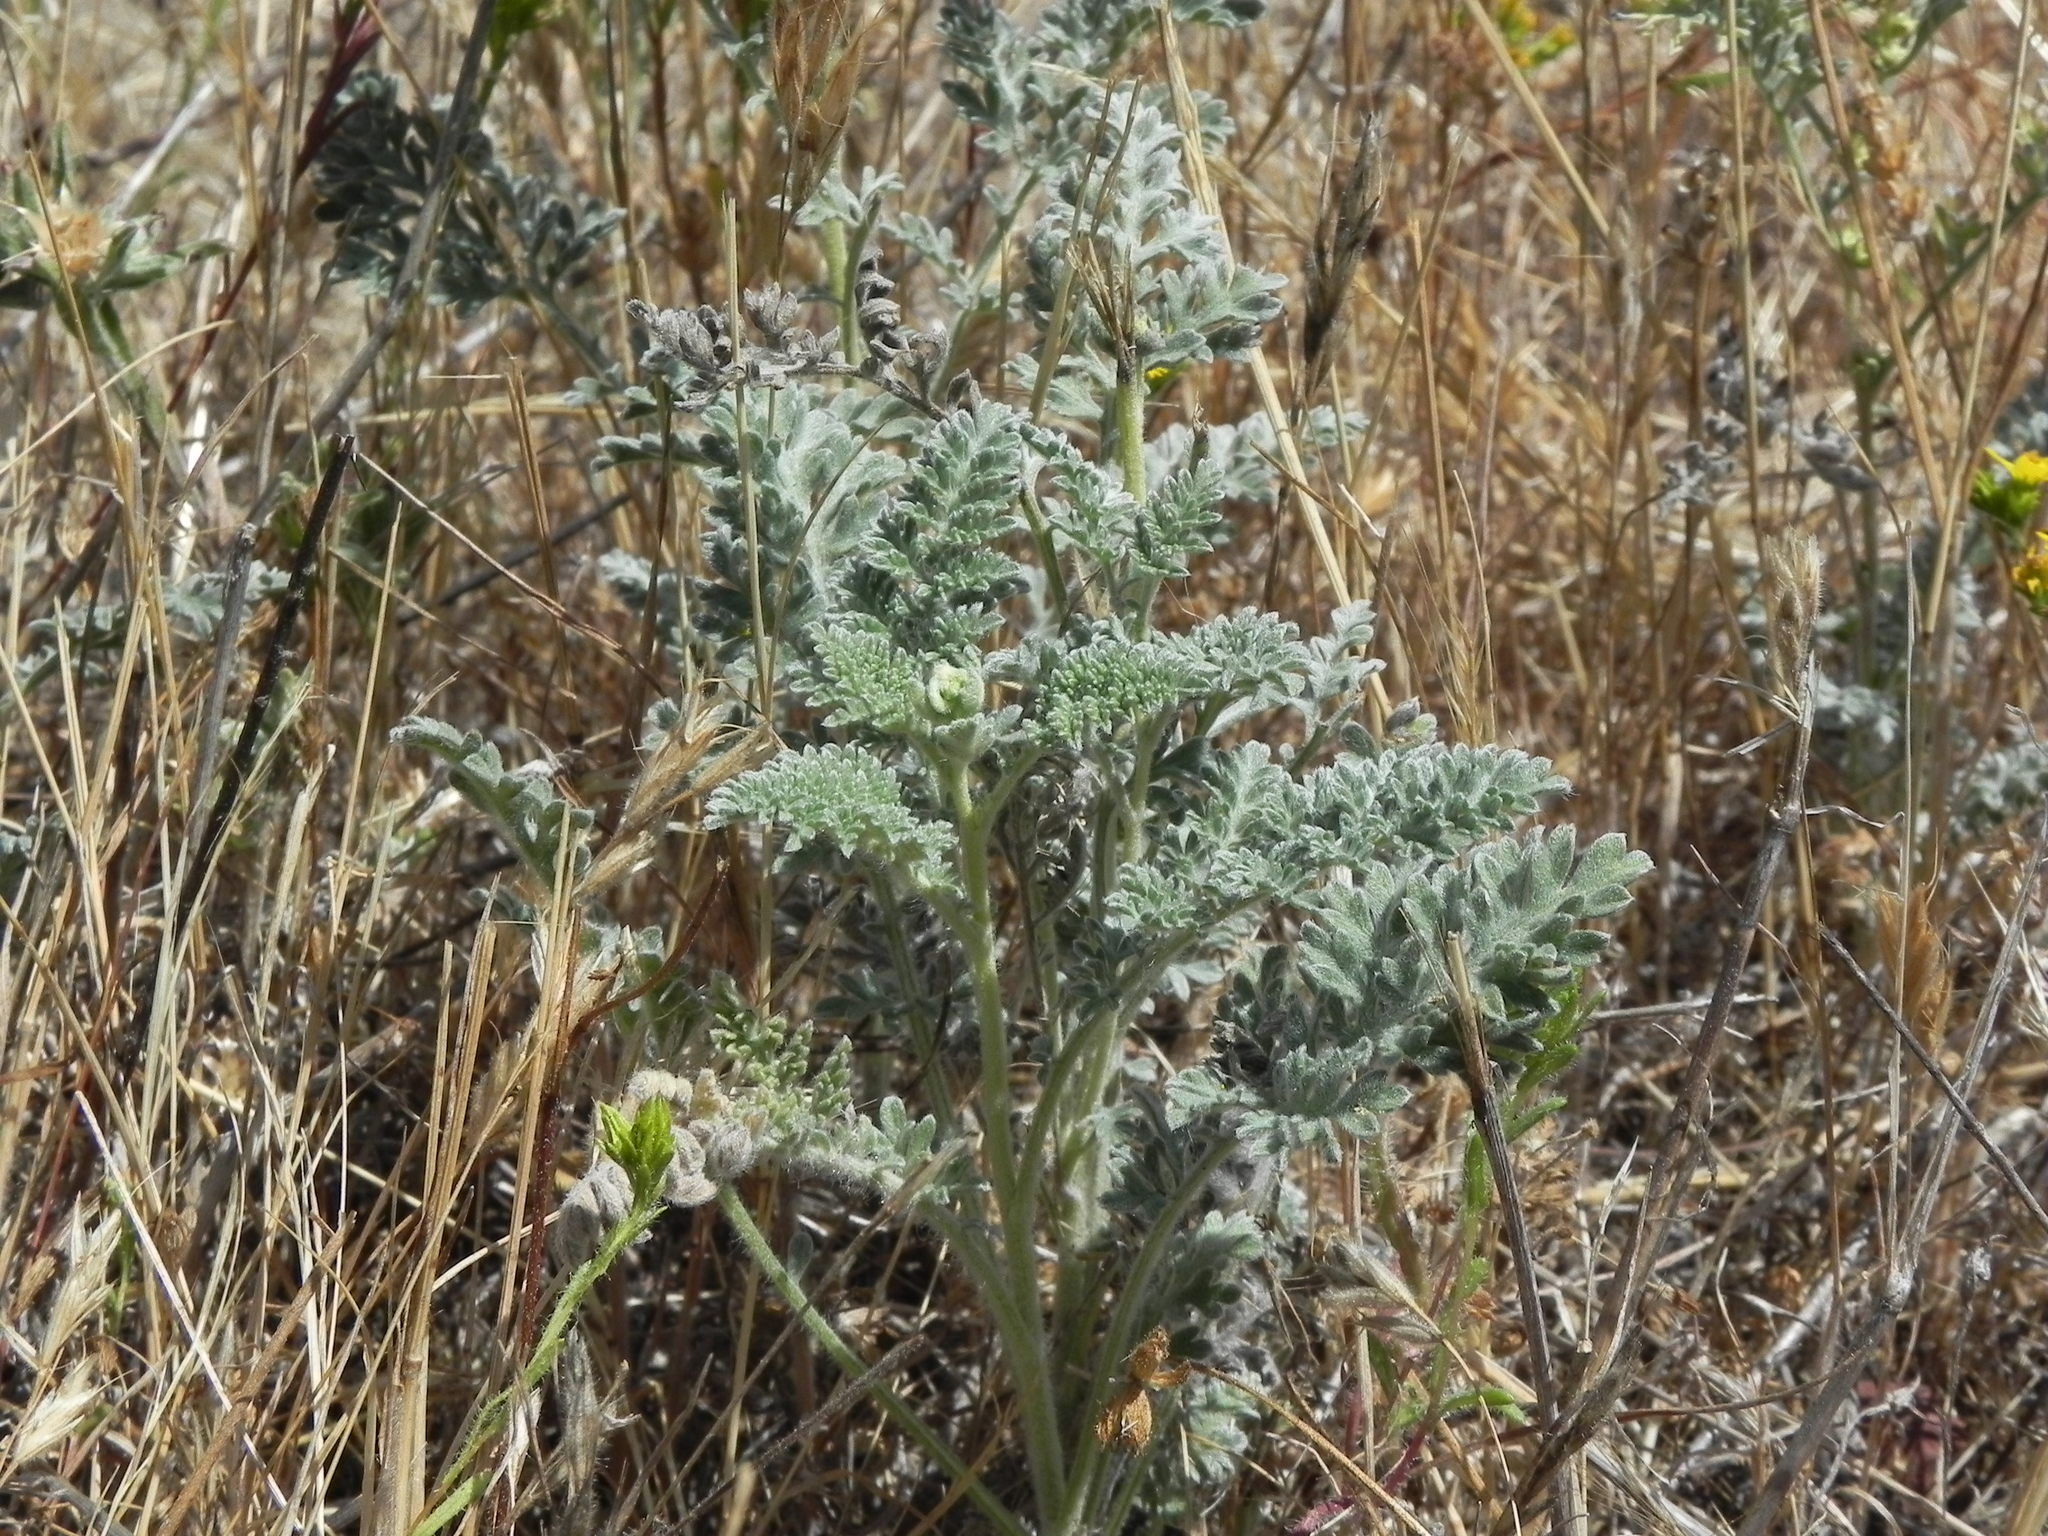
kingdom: Plantae
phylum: Tracheophyta
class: Magnoliopsida
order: Asterales
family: Asteraceae
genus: Ambrosia
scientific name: Ambrosia pumila
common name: San diego ambrosia
